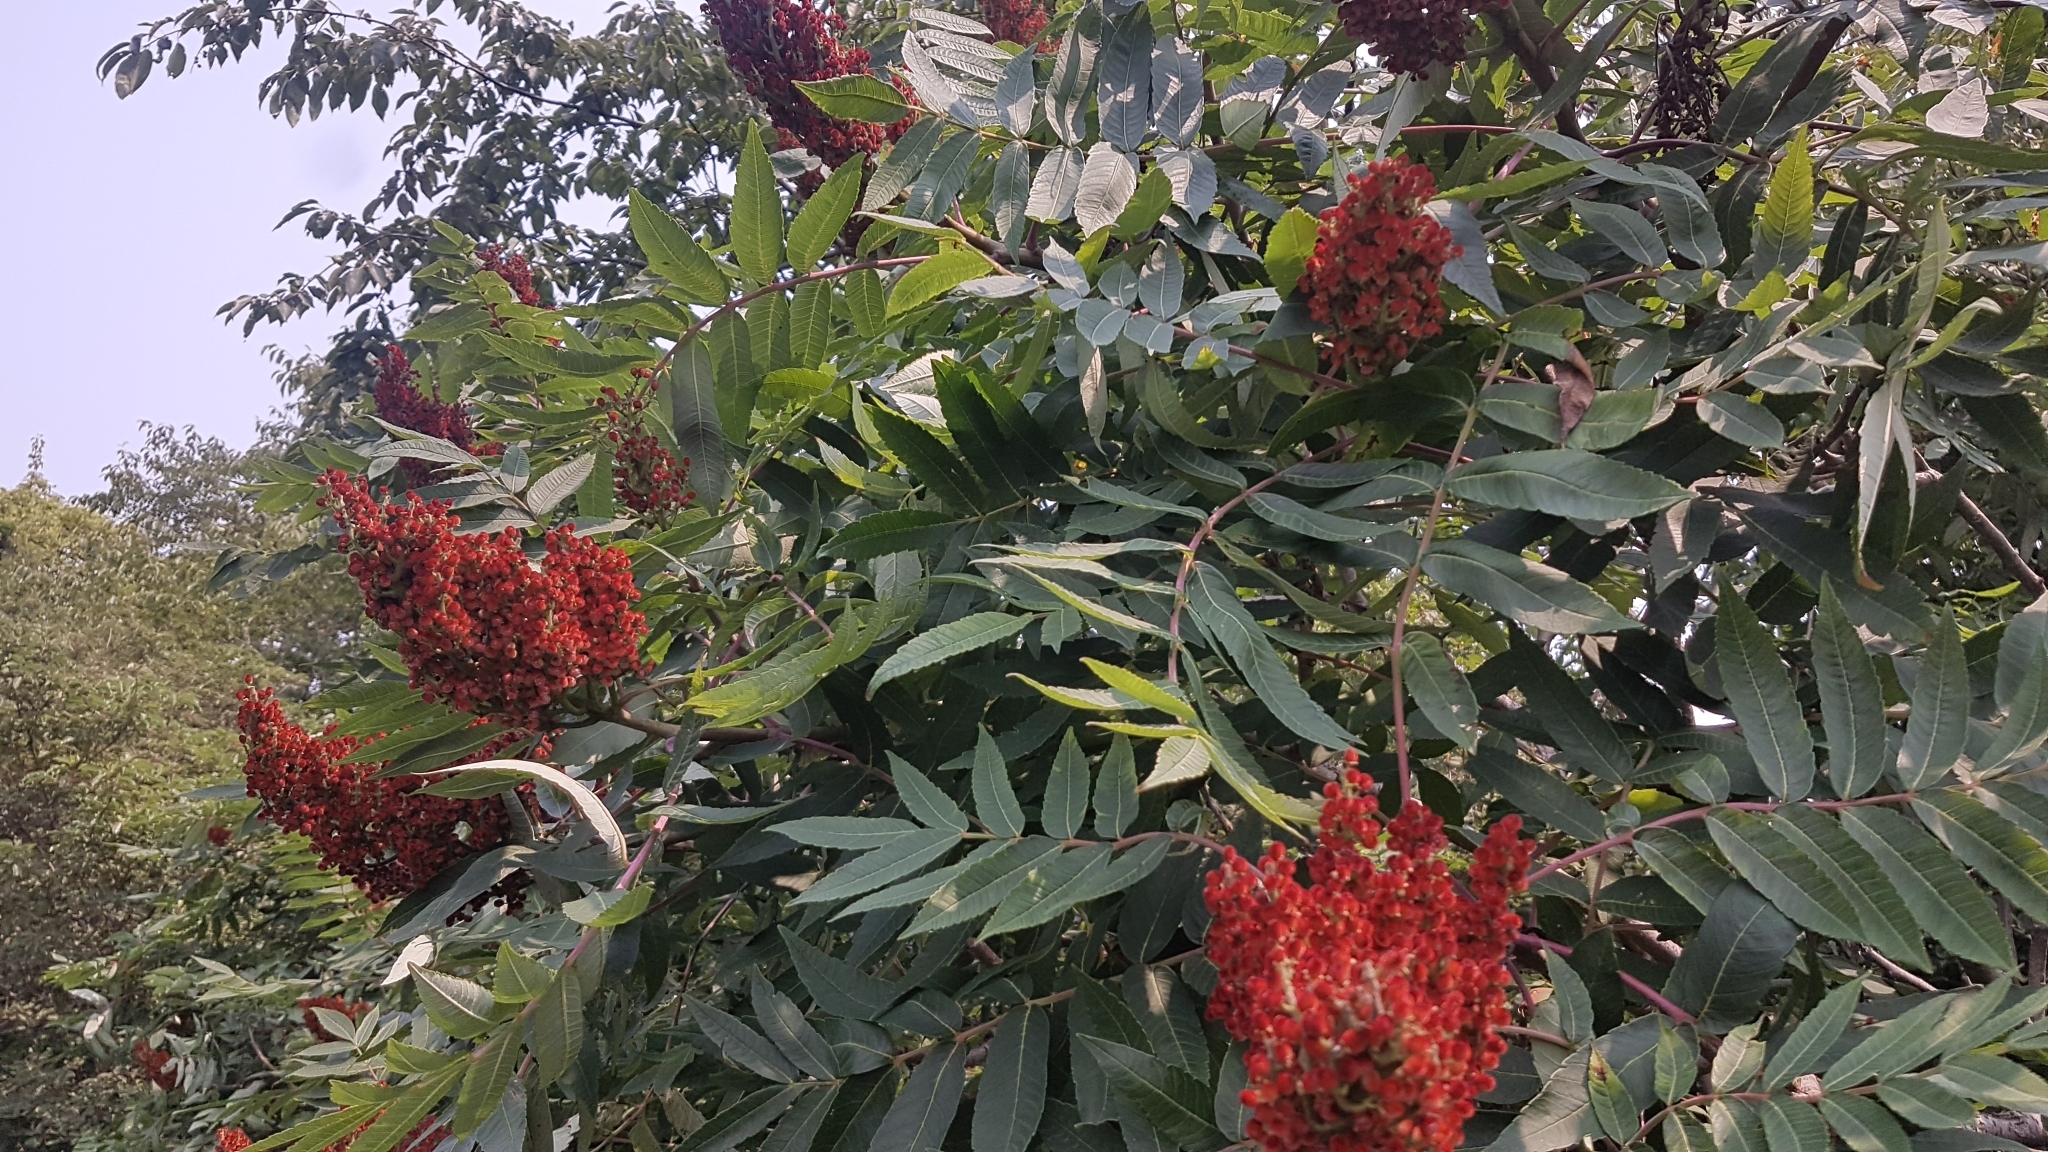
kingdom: Plantae
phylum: Tracheophyta
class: Magnoliopsida
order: Sapindales
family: Anacardiaceae
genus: Rhus
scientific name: Rhus glabra
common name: Scarlet sumac
